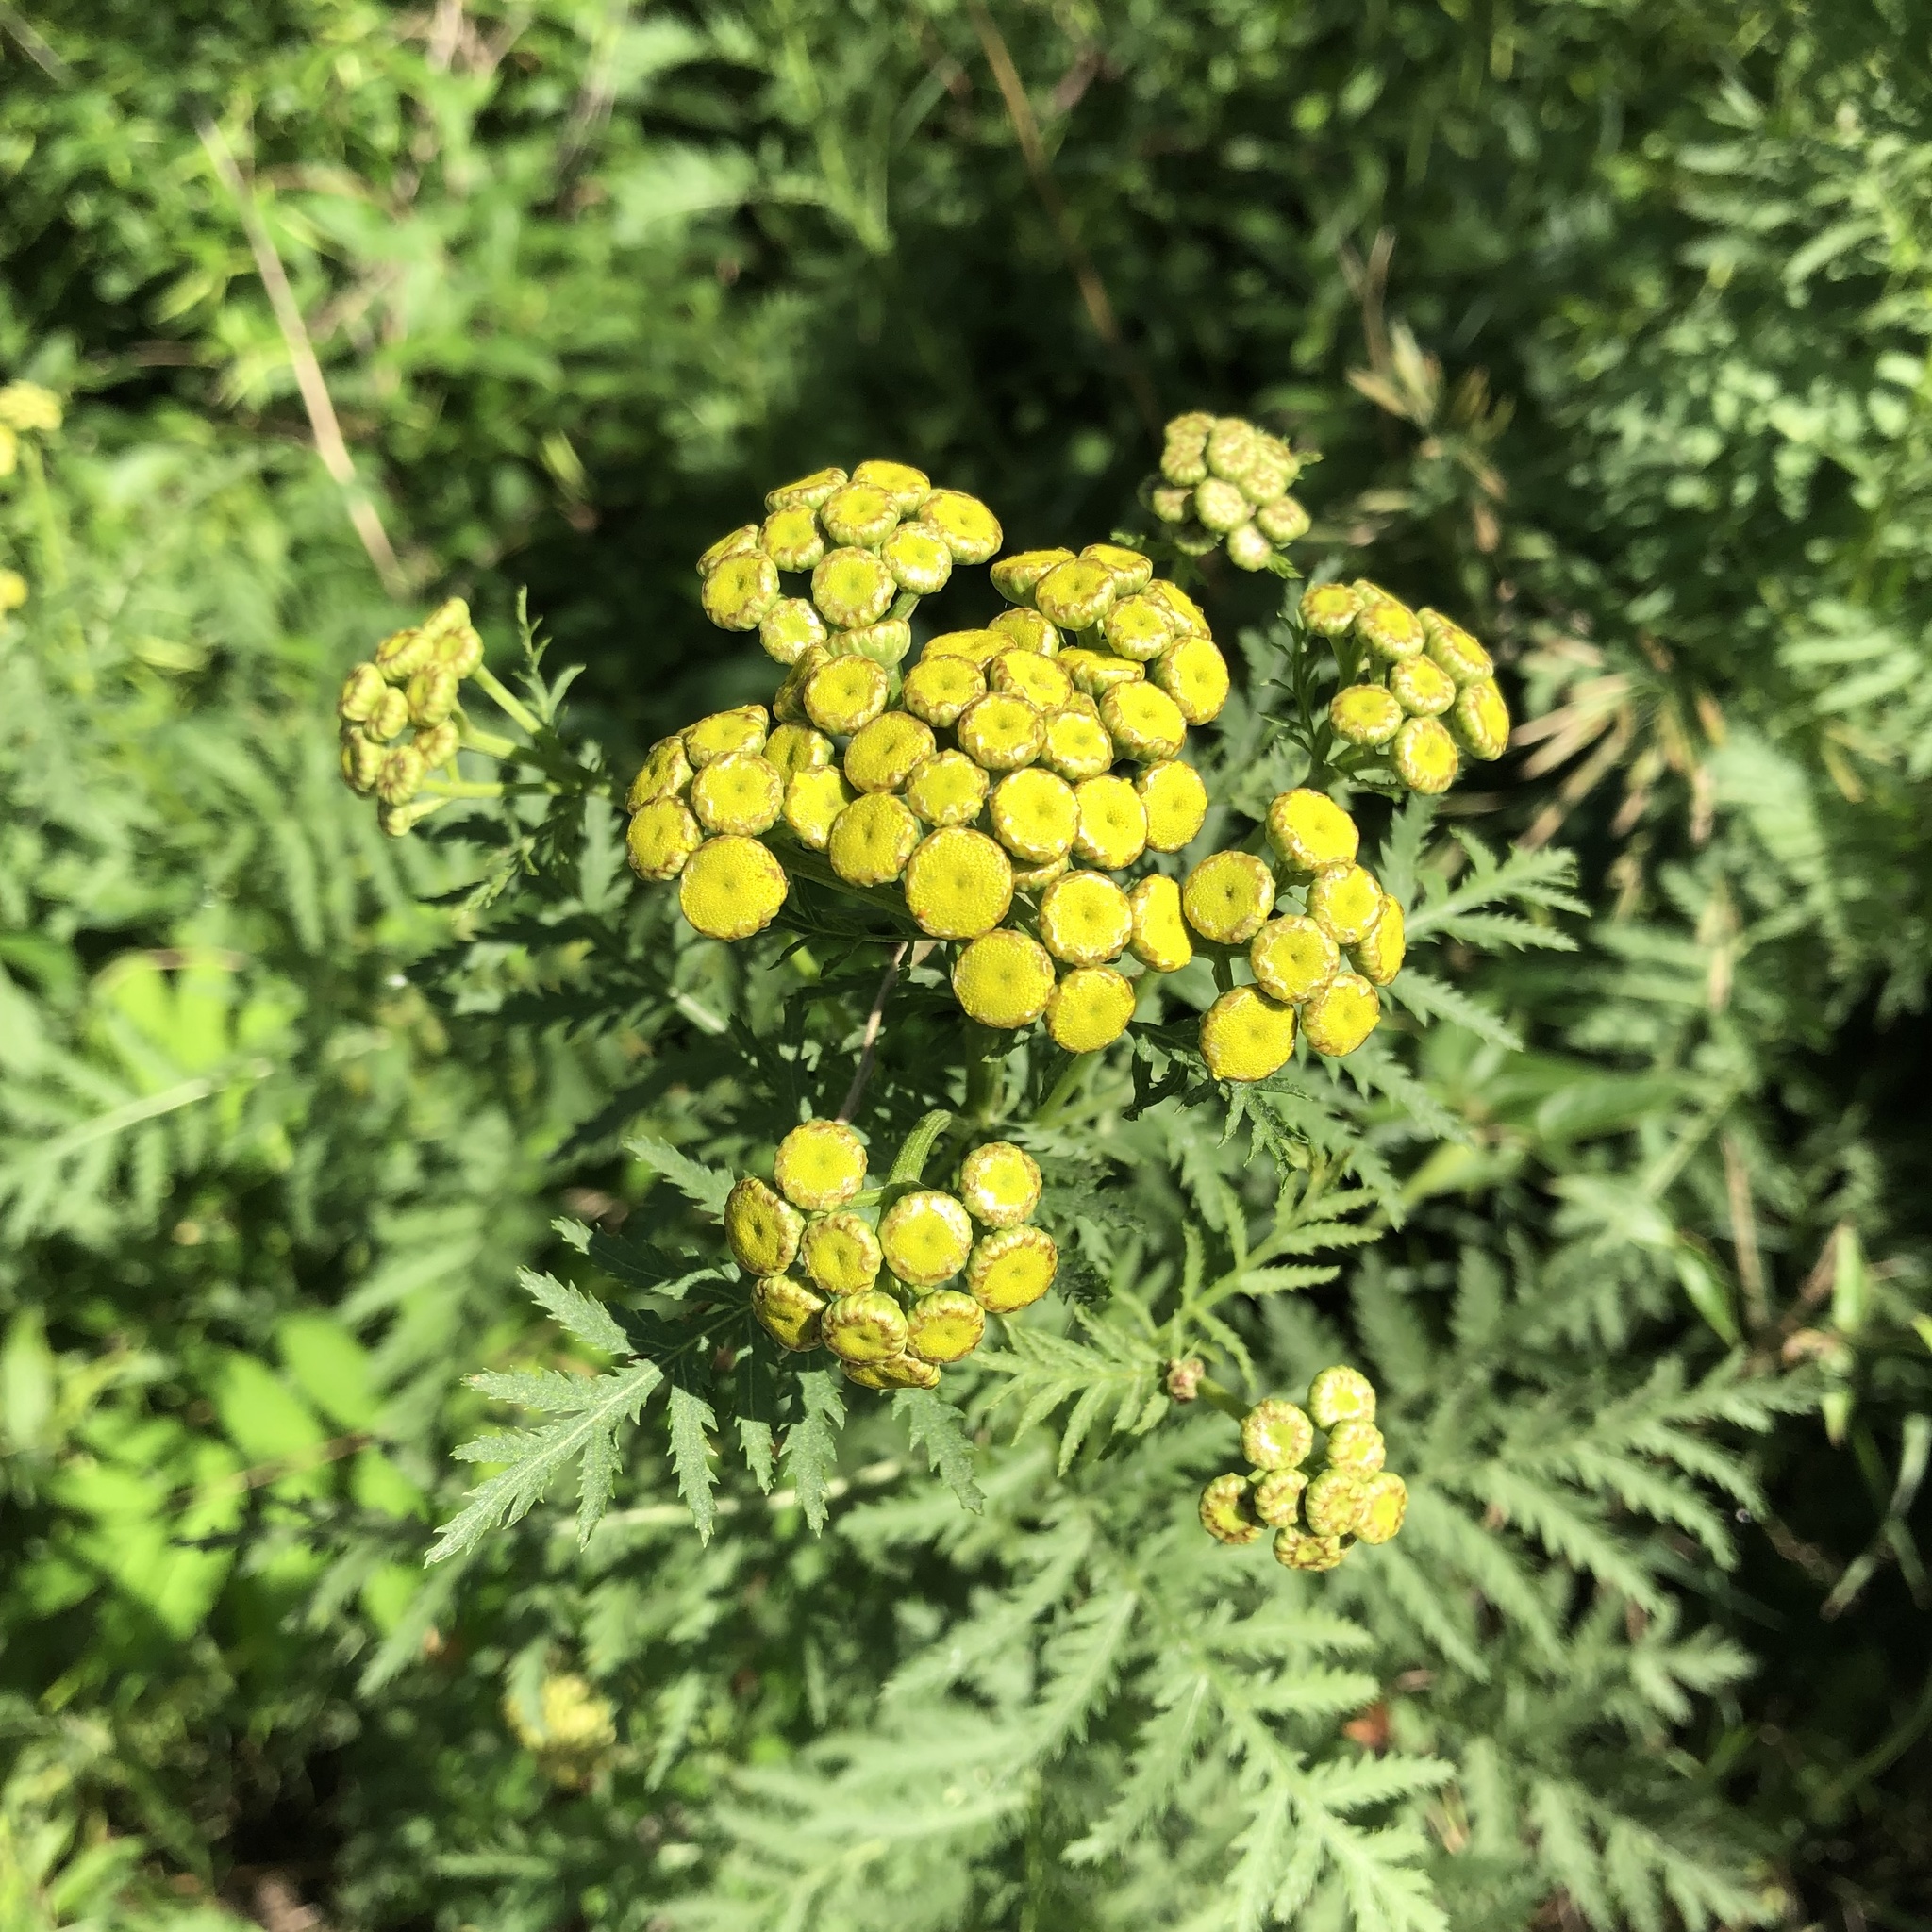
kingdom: Plantae
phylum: Tracheophyta
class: Magnoliopsida
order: Asterales
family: Asteraceae
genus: Tanacetum
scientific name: Tanacetum vulgare
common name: Common tansy
